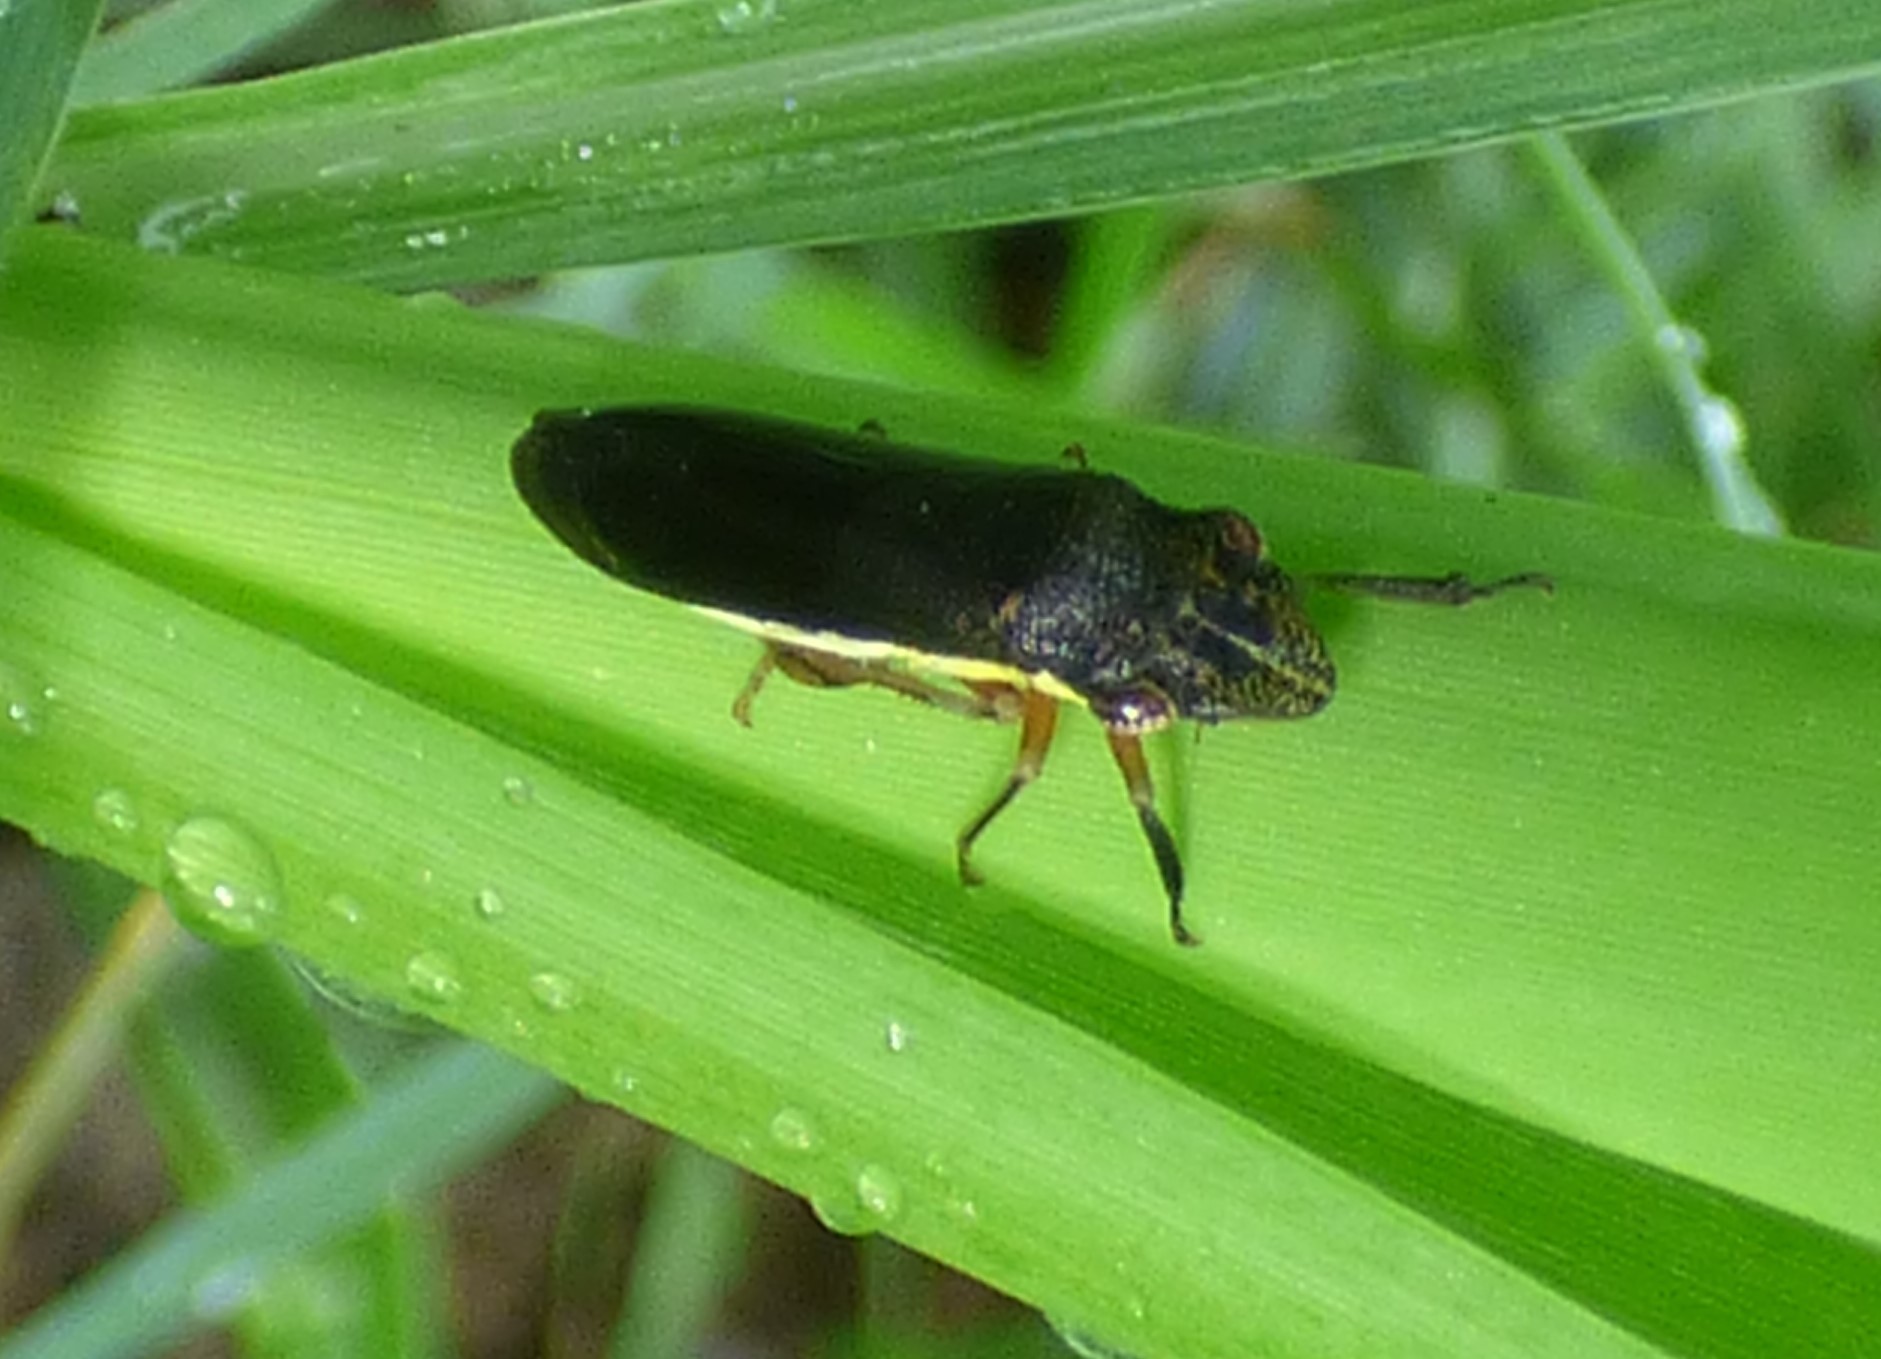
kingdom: Animalia
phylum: Arthropoda
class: Insecta
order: Hemiptera
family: Cicadellidae
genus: Homalodisca
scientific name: Homalodisca insolita
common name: Johnson grass sharpshooter
